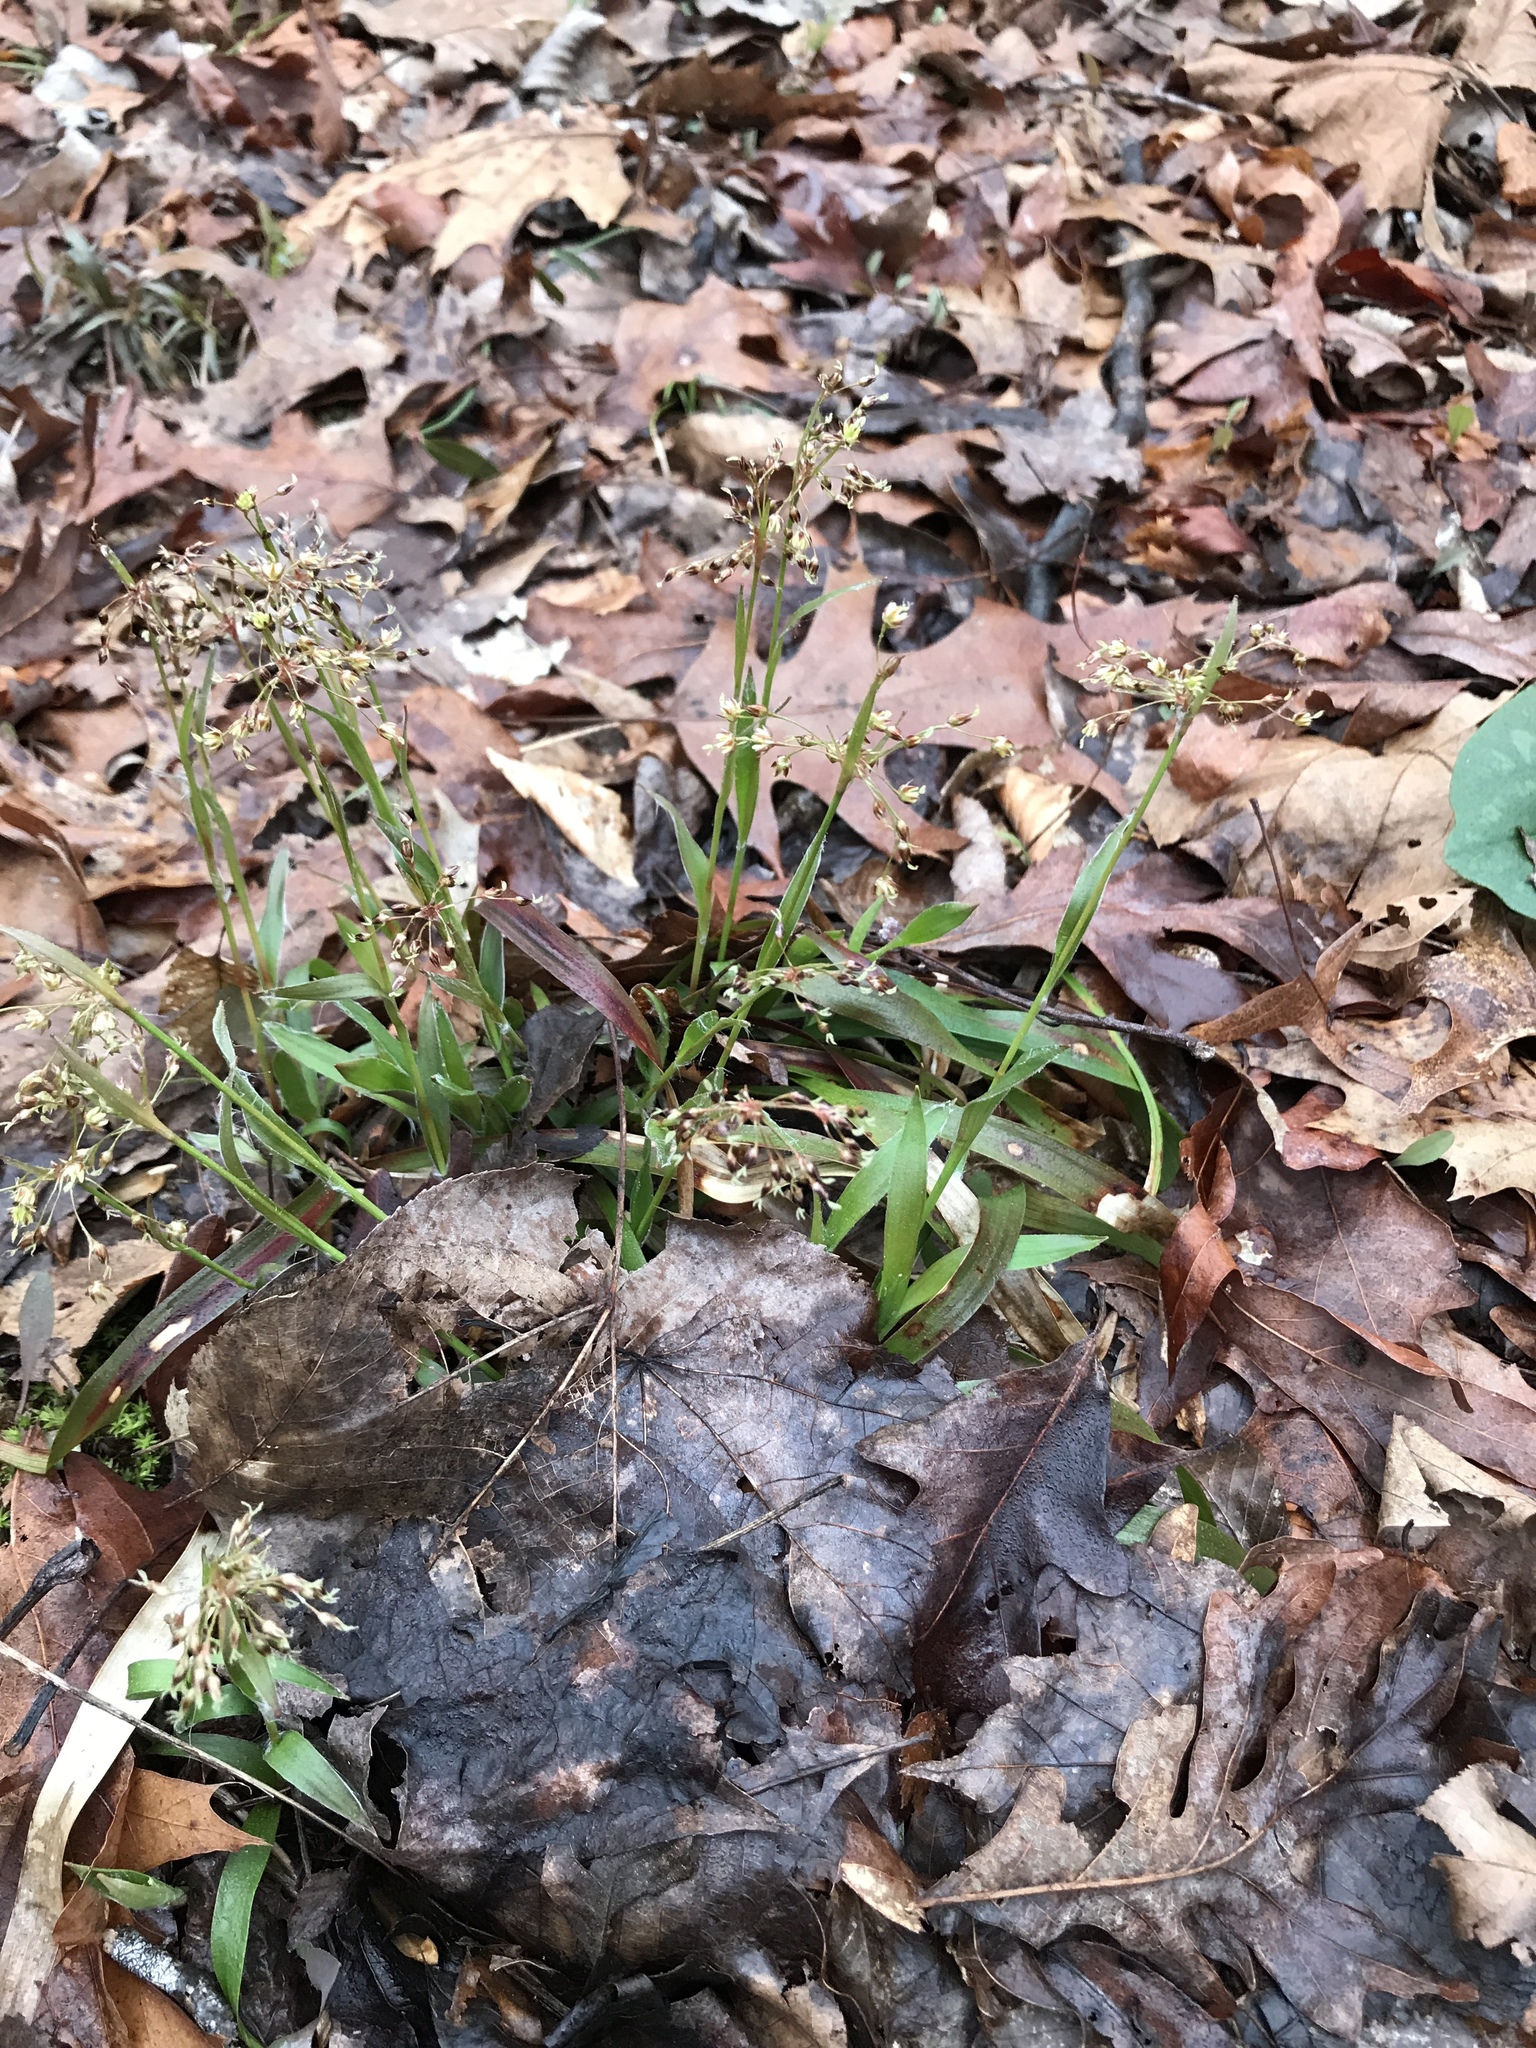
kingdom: Plantae
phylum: Tracheophyta
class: Liliopsida
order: Poales
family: Juncaceae
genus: Luzula
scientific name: Luzula acuminata
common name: Hairy woodrush
